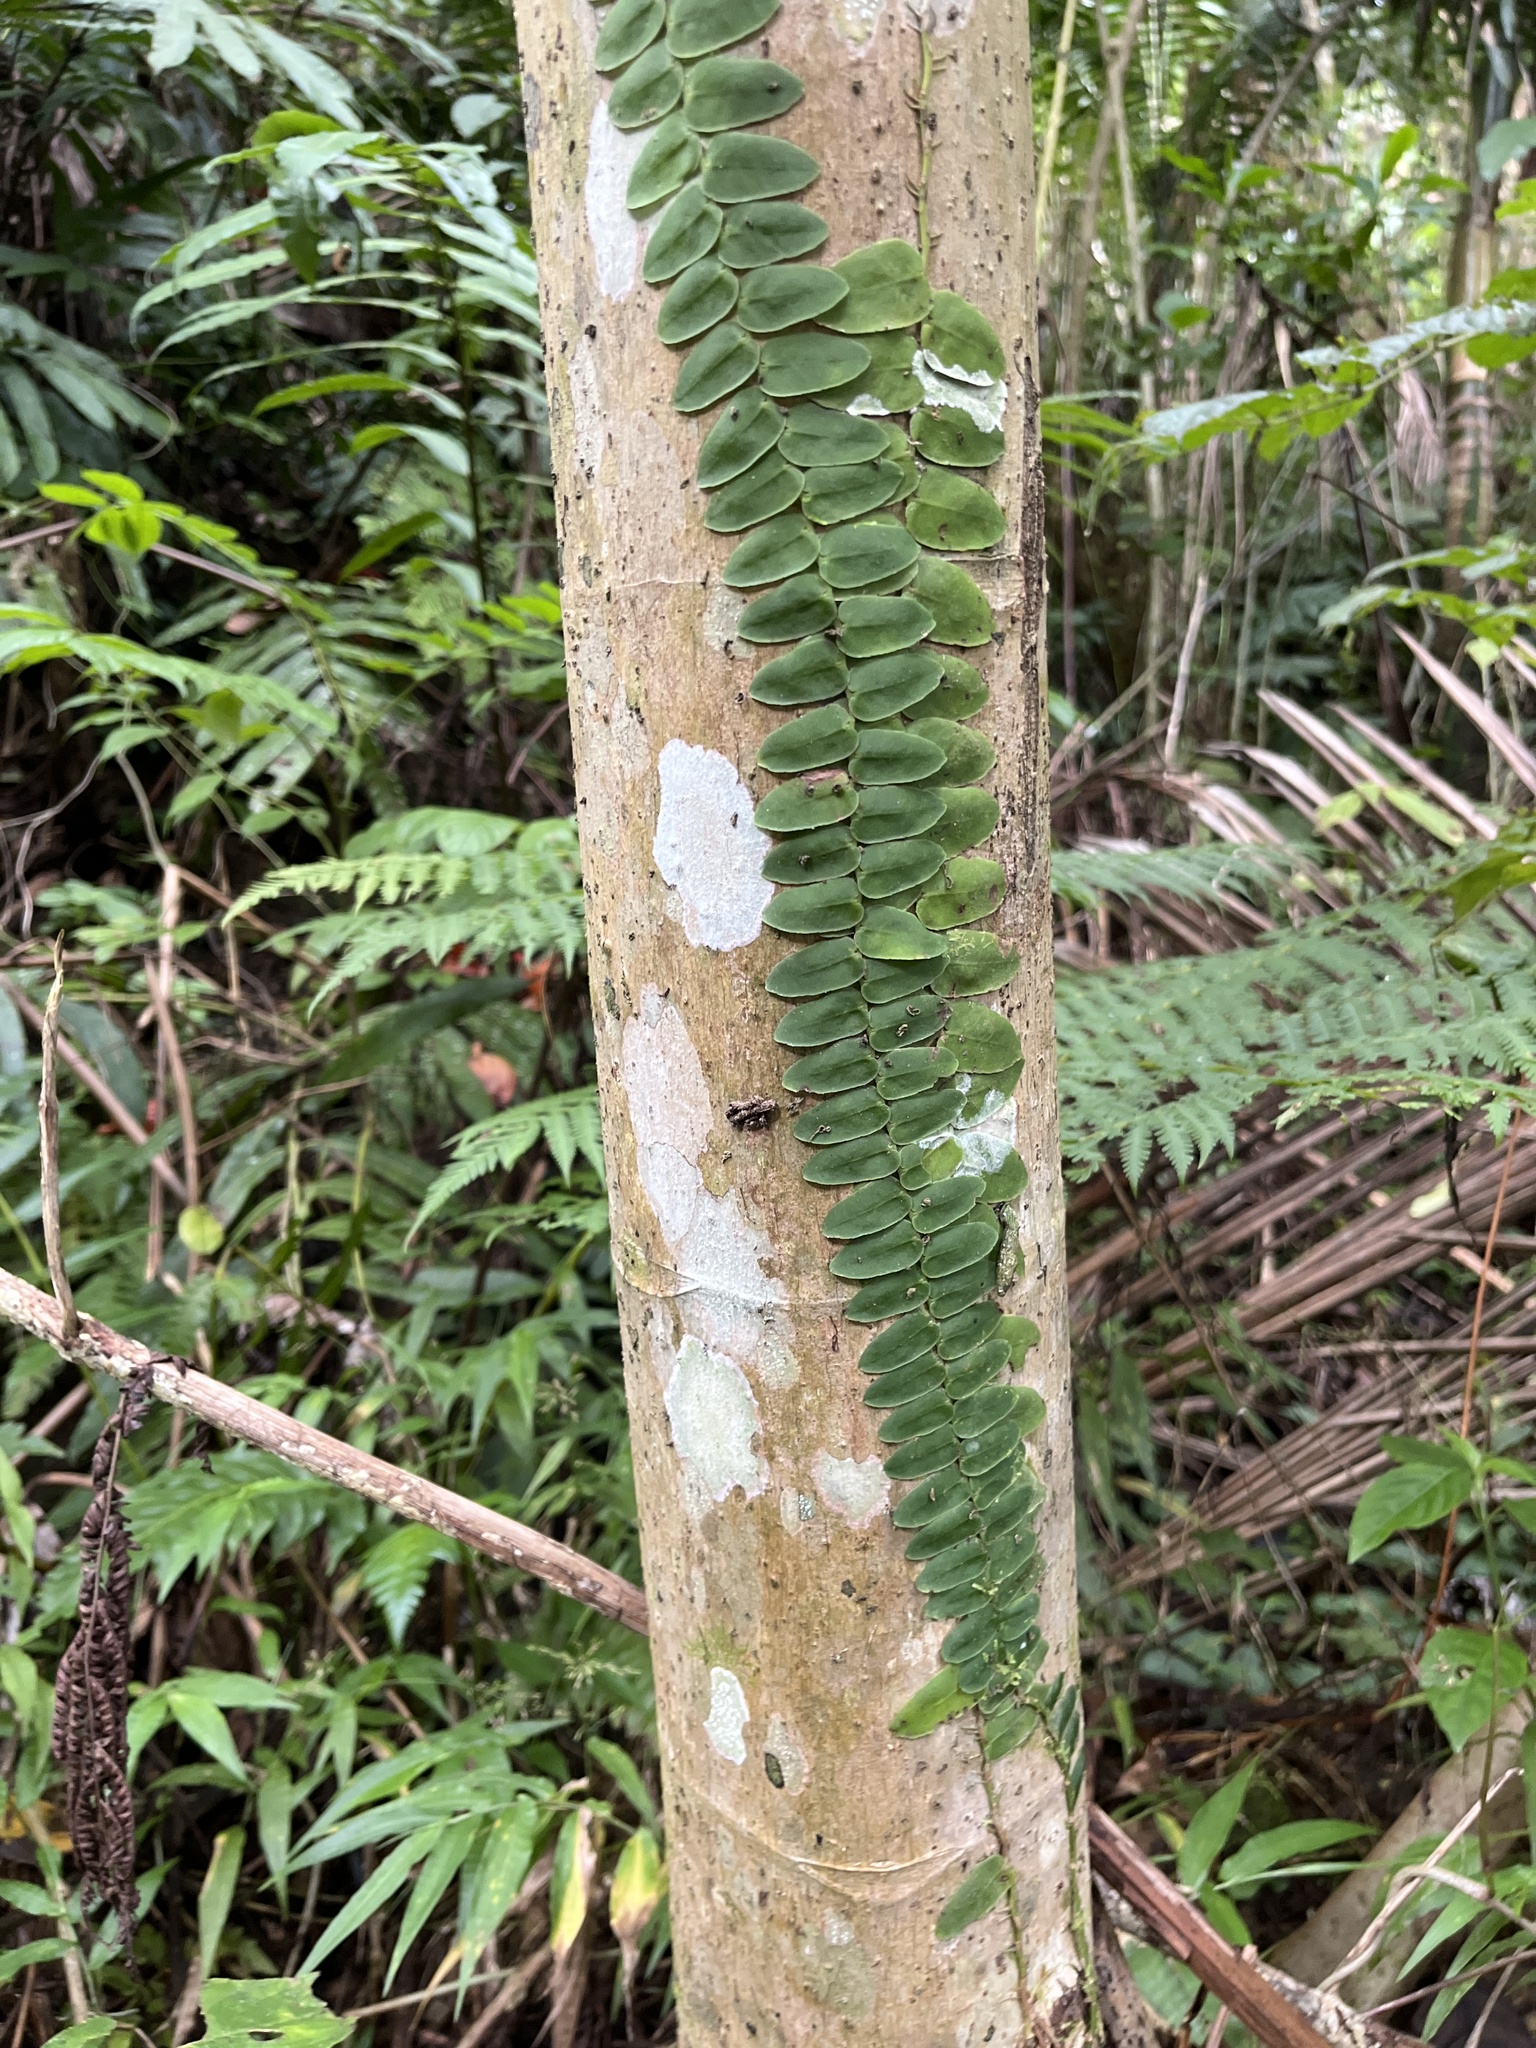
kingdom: Plantae
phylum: Tracheophyta
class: Magnoliopsida
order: Ericales
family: Marcgraviaceae
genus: Marcgravia
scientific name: Marcgravia rectiflora
